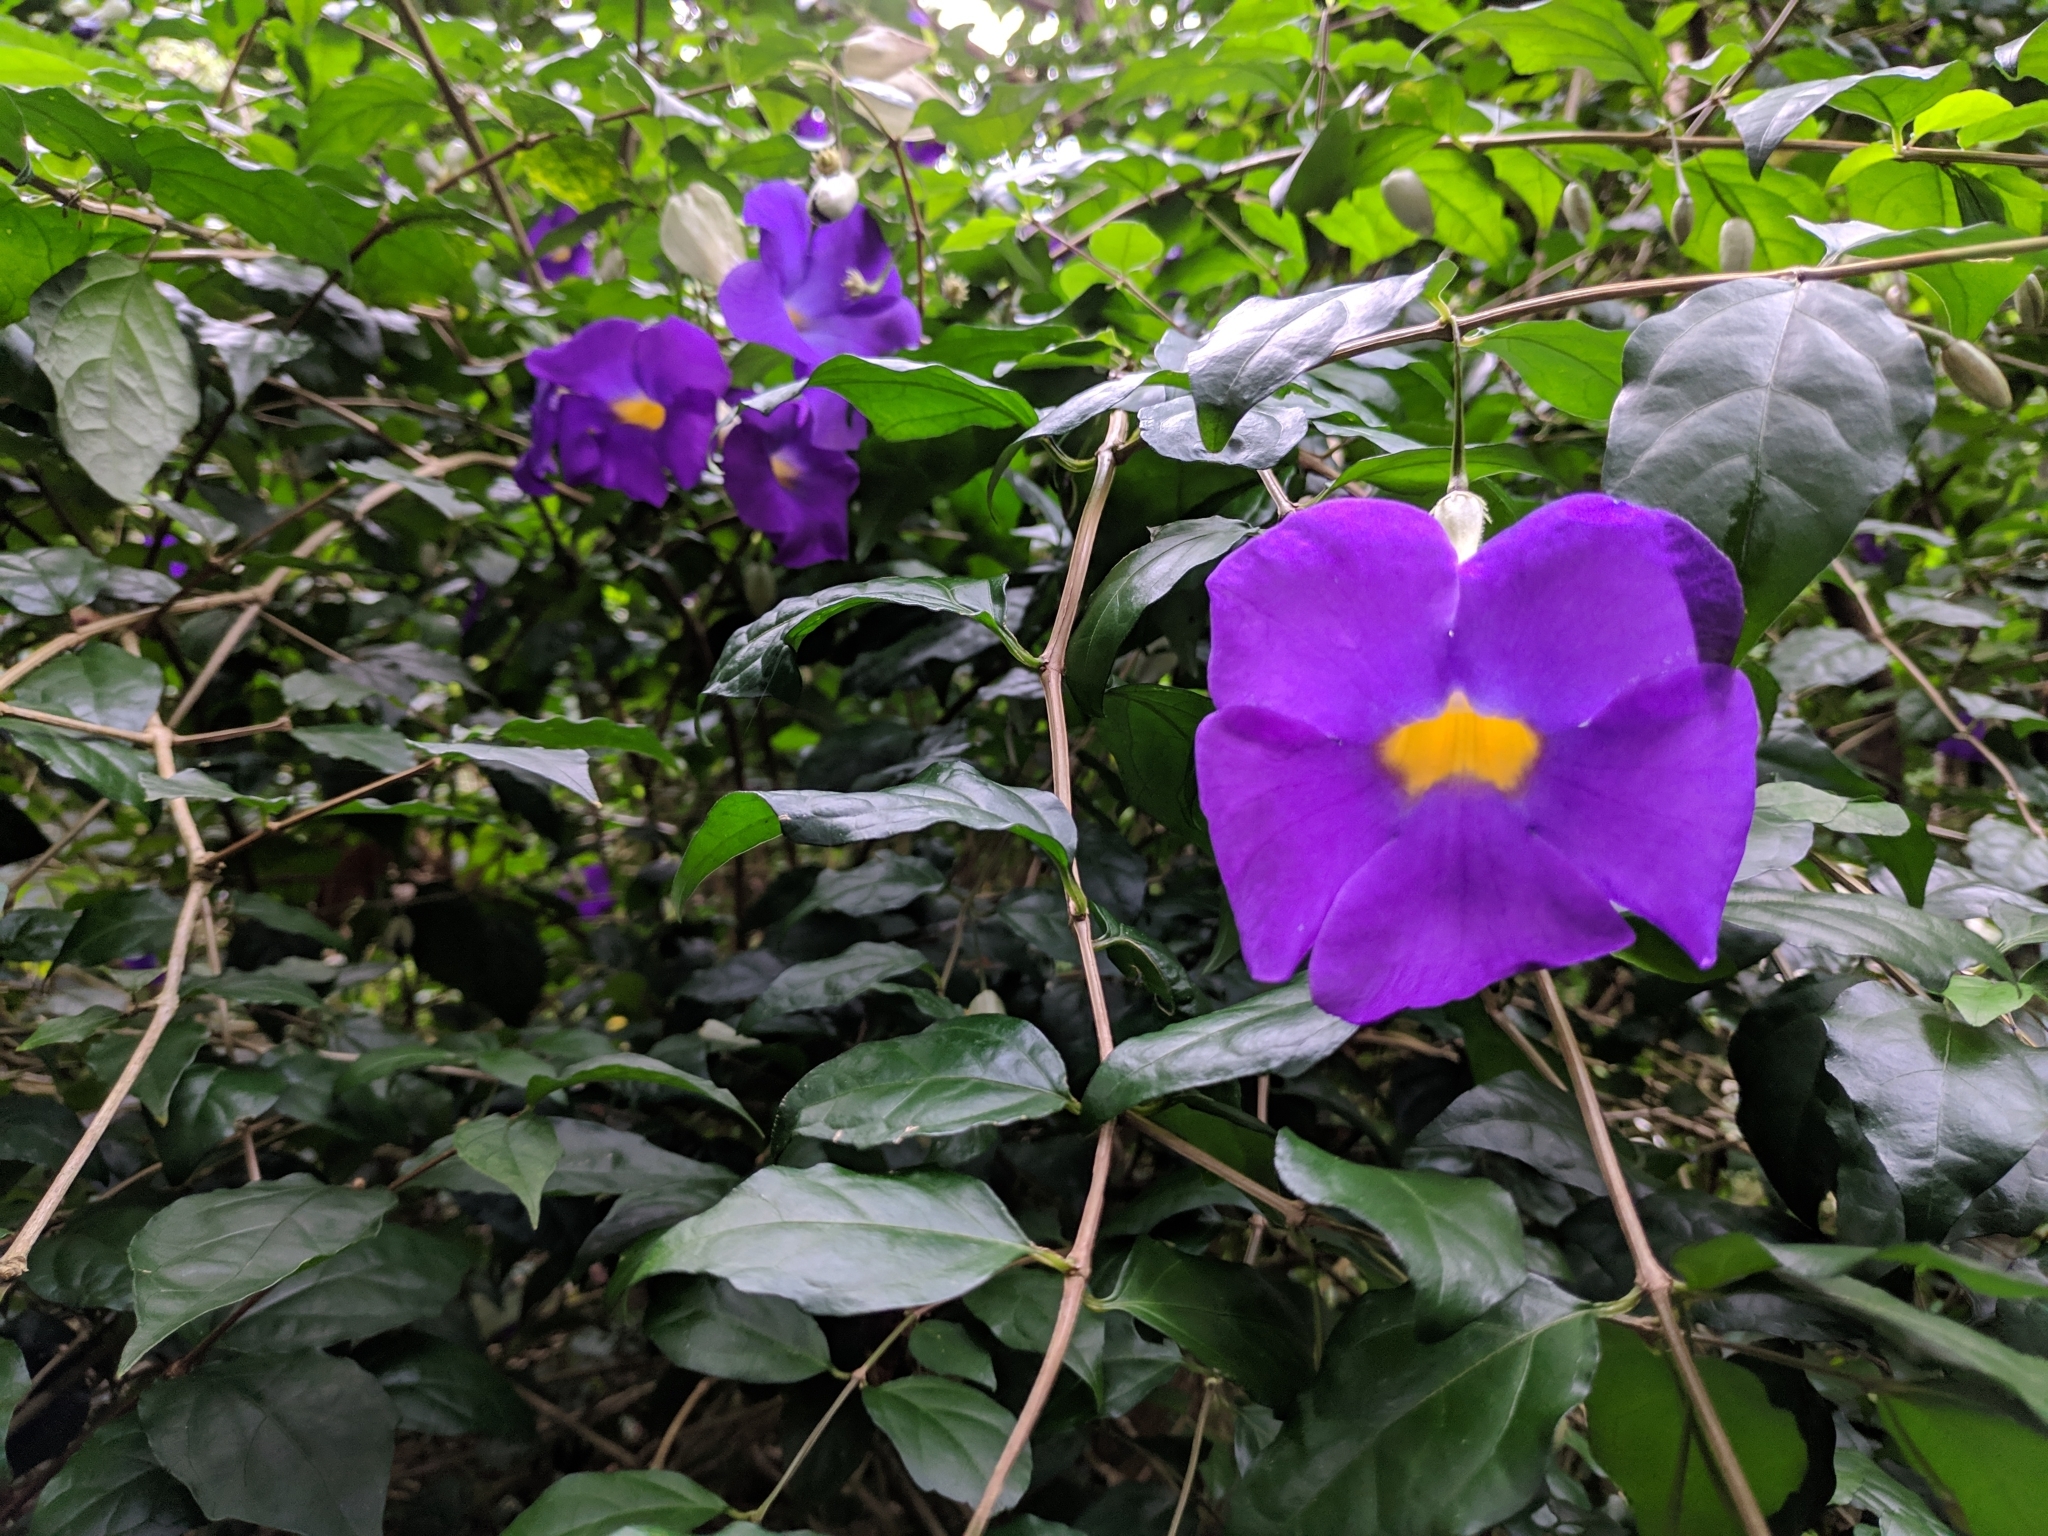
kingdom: Plantae
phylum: Tracheophyta
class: Magnoliopsida
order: Lamiales
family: Acanthaceae
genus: Thunbergia
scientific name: Thunbergia erecta
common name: Bush clockvine
